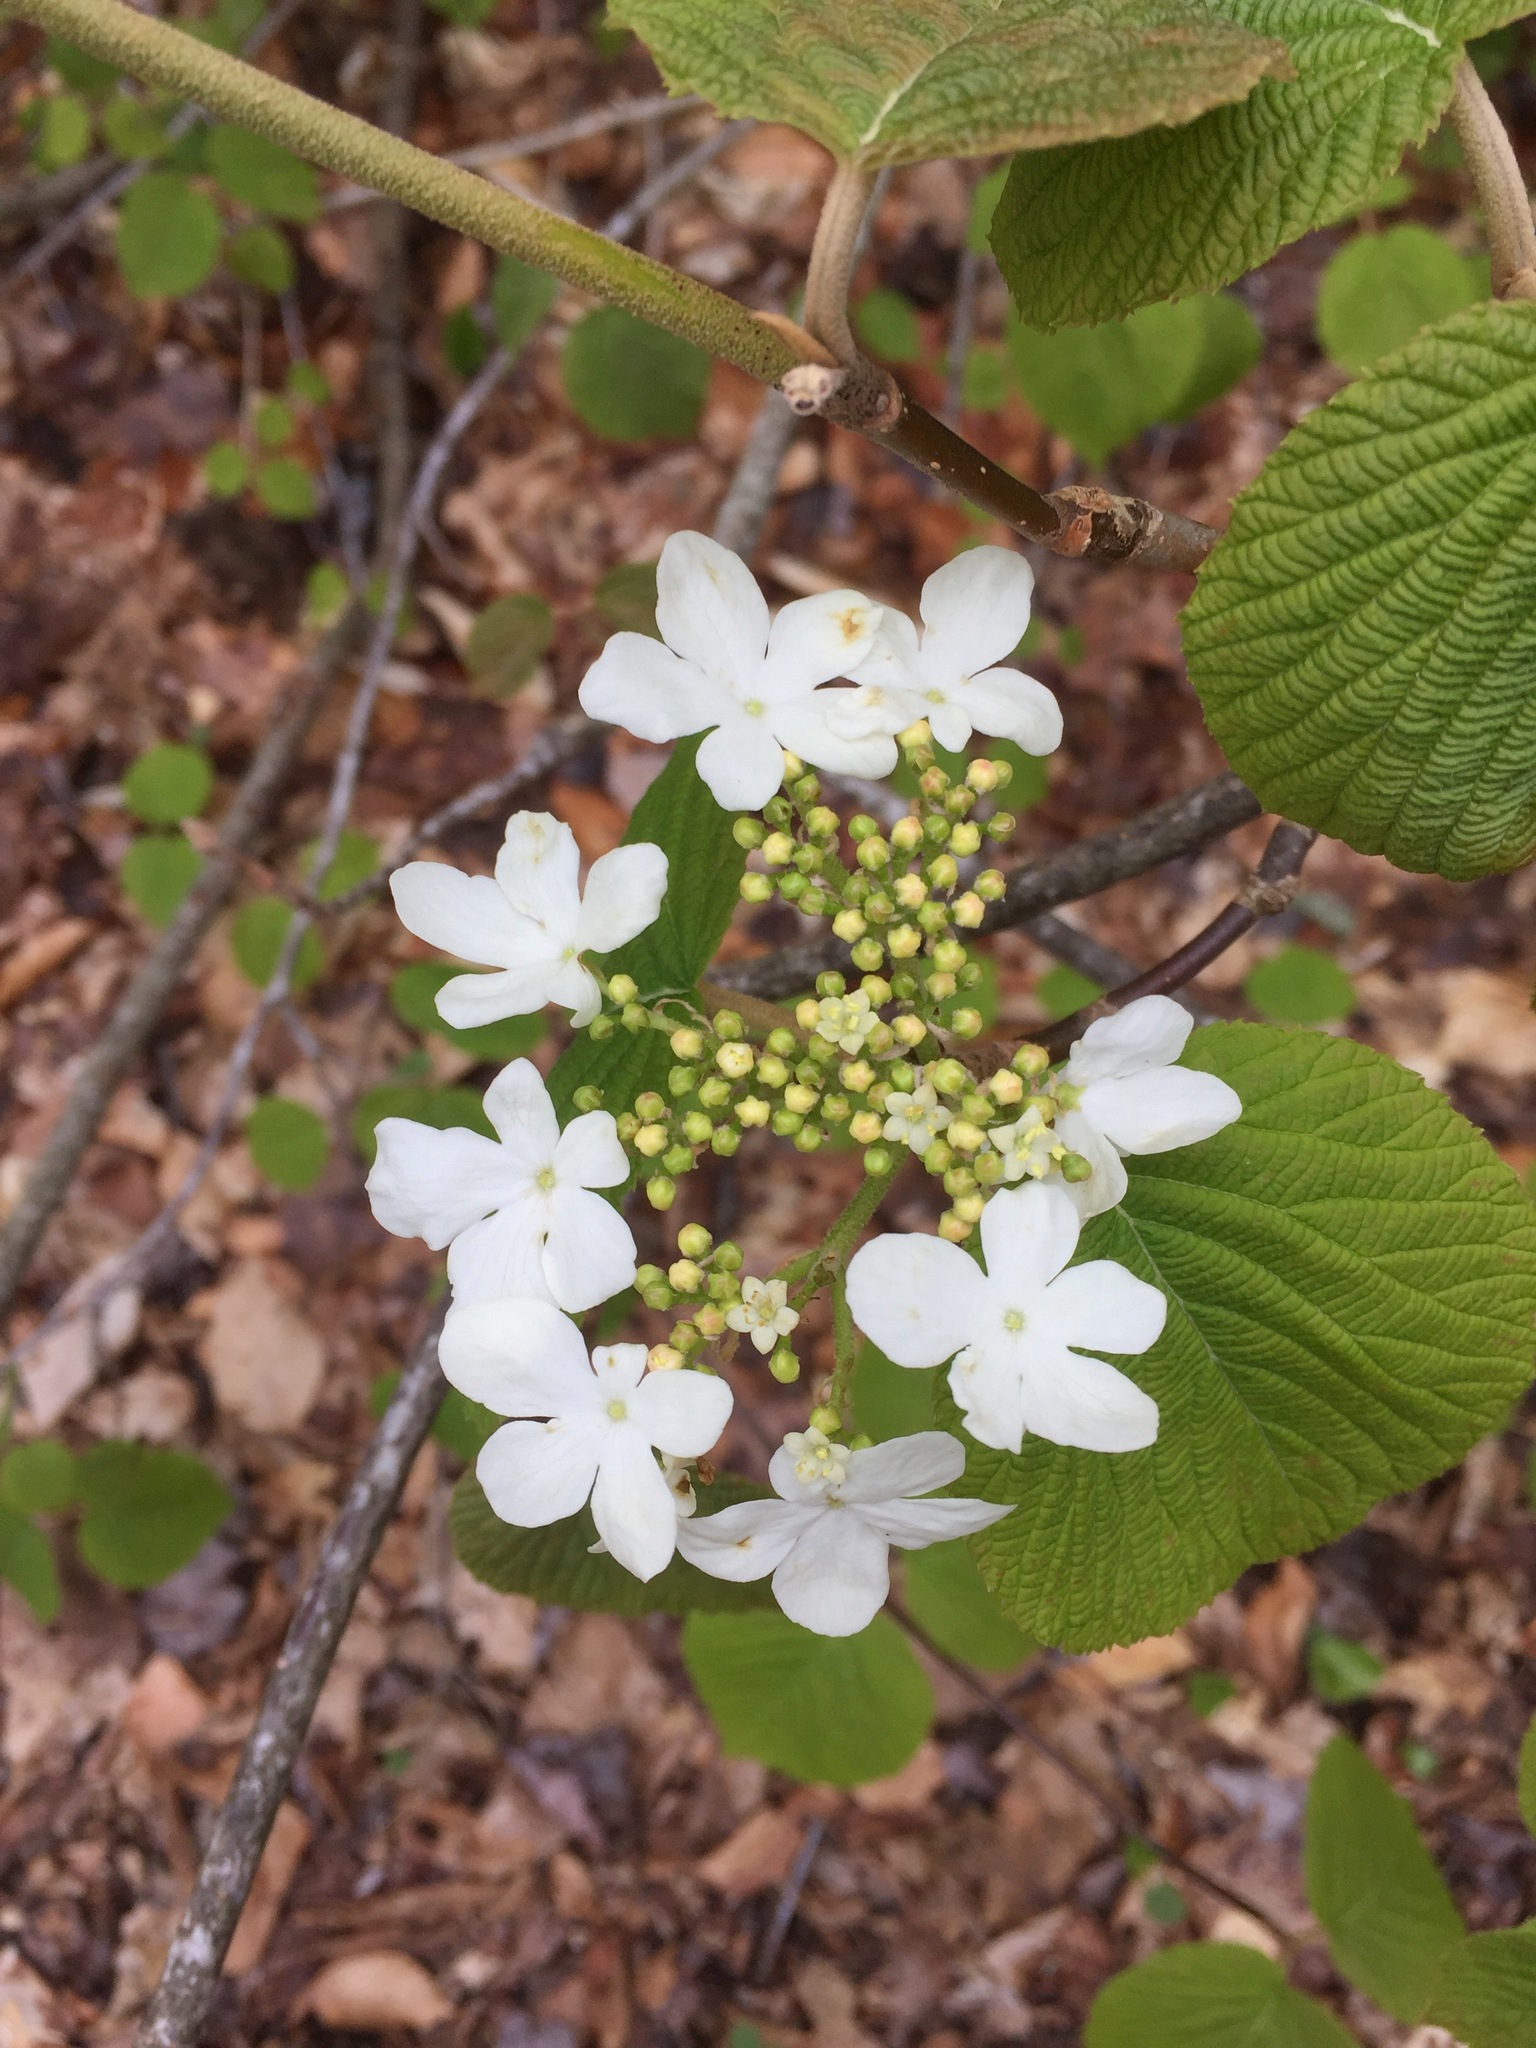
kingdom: Plantae
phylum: Tracheophyta
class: Magnoliopsida
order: Dipsacales
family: Viburnaceae
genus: Viburnum
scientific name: Viburnum lantanoides
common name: Hobblebush
